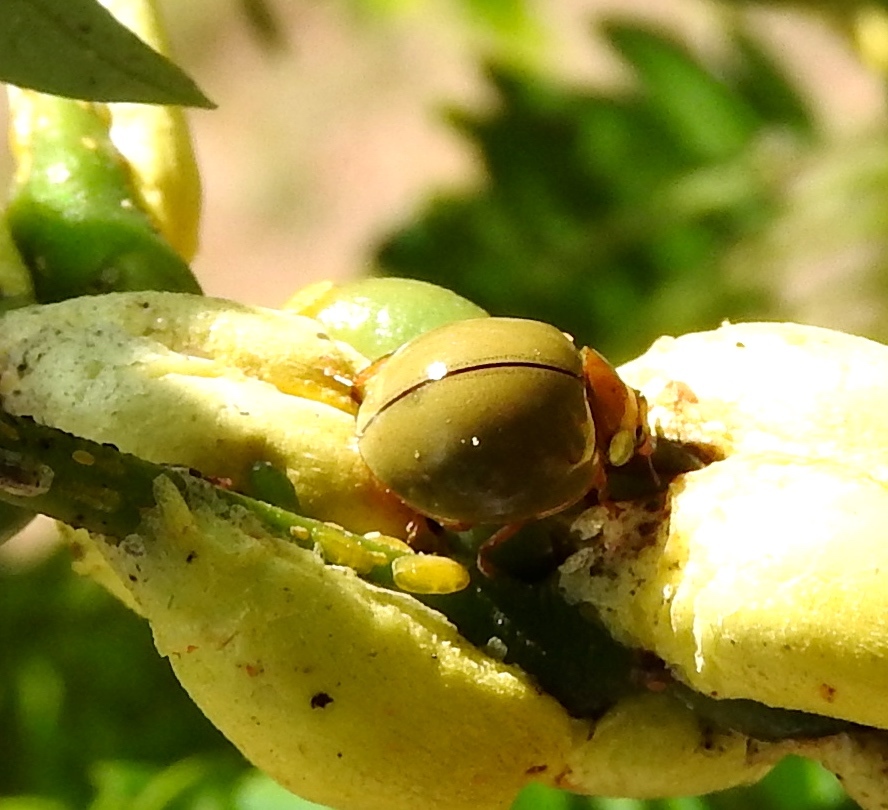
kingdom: Animalia
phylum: Arthropoda
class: Insecta
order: Coleoptera
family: Coccinellidae
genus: Paraneda
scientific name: Paraneda
